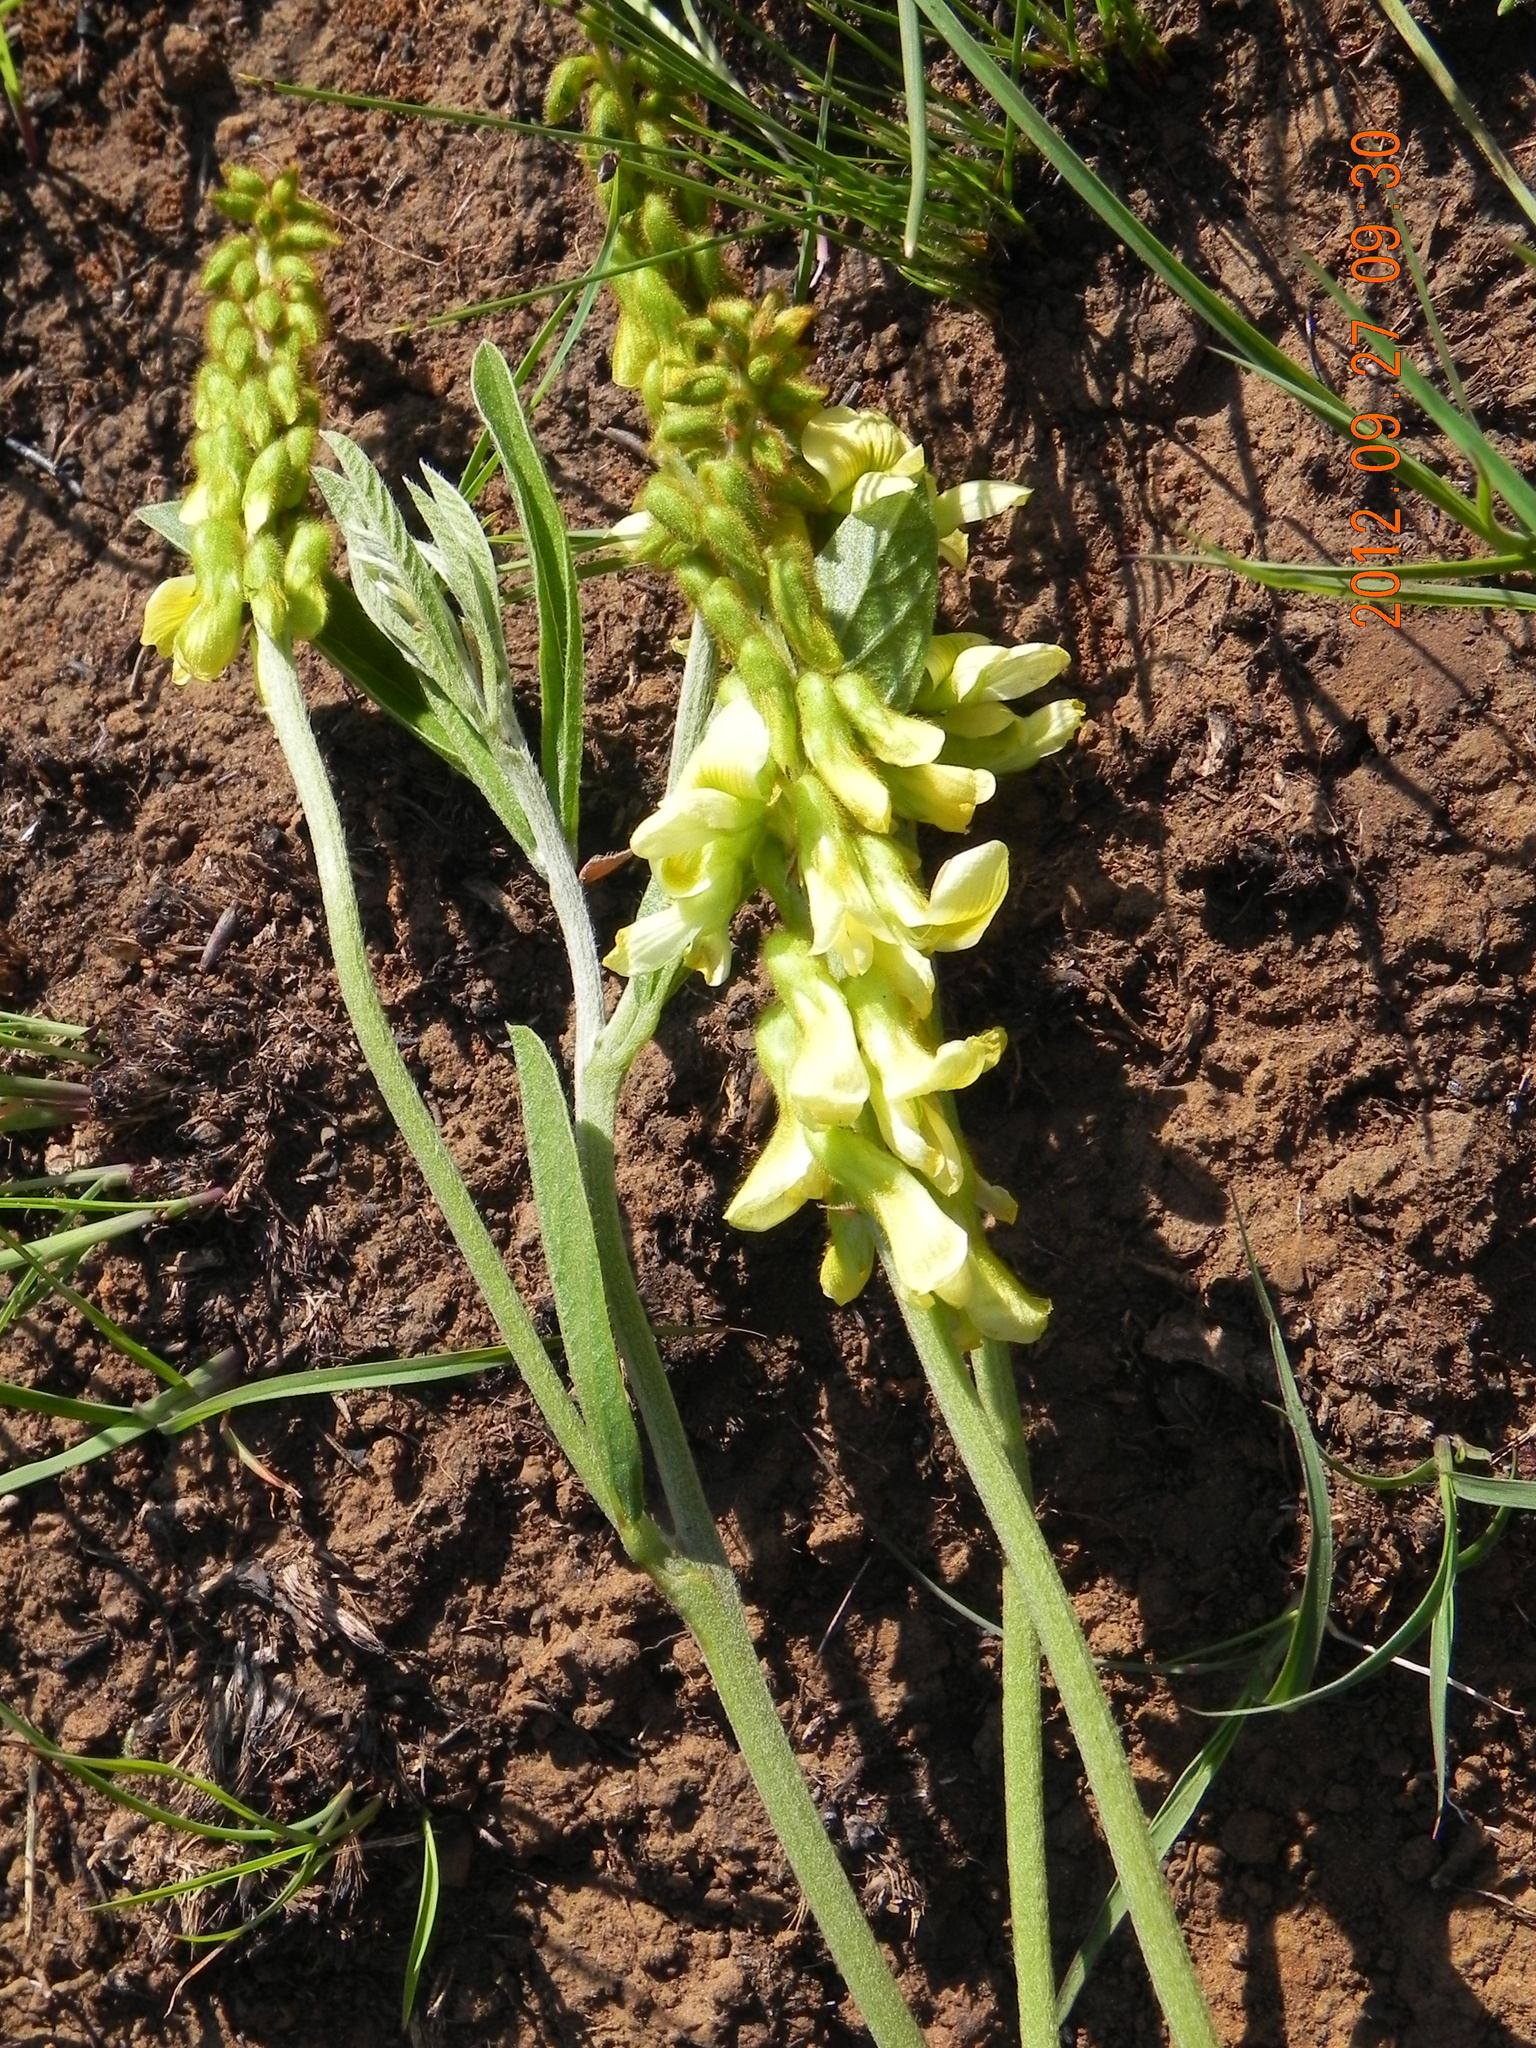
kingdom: Plantae
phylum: Tracheophyta
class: Magnoliopsida
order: Fabales
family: Fabaceae
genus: Eriosema
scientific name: Eriosema kraussianum
